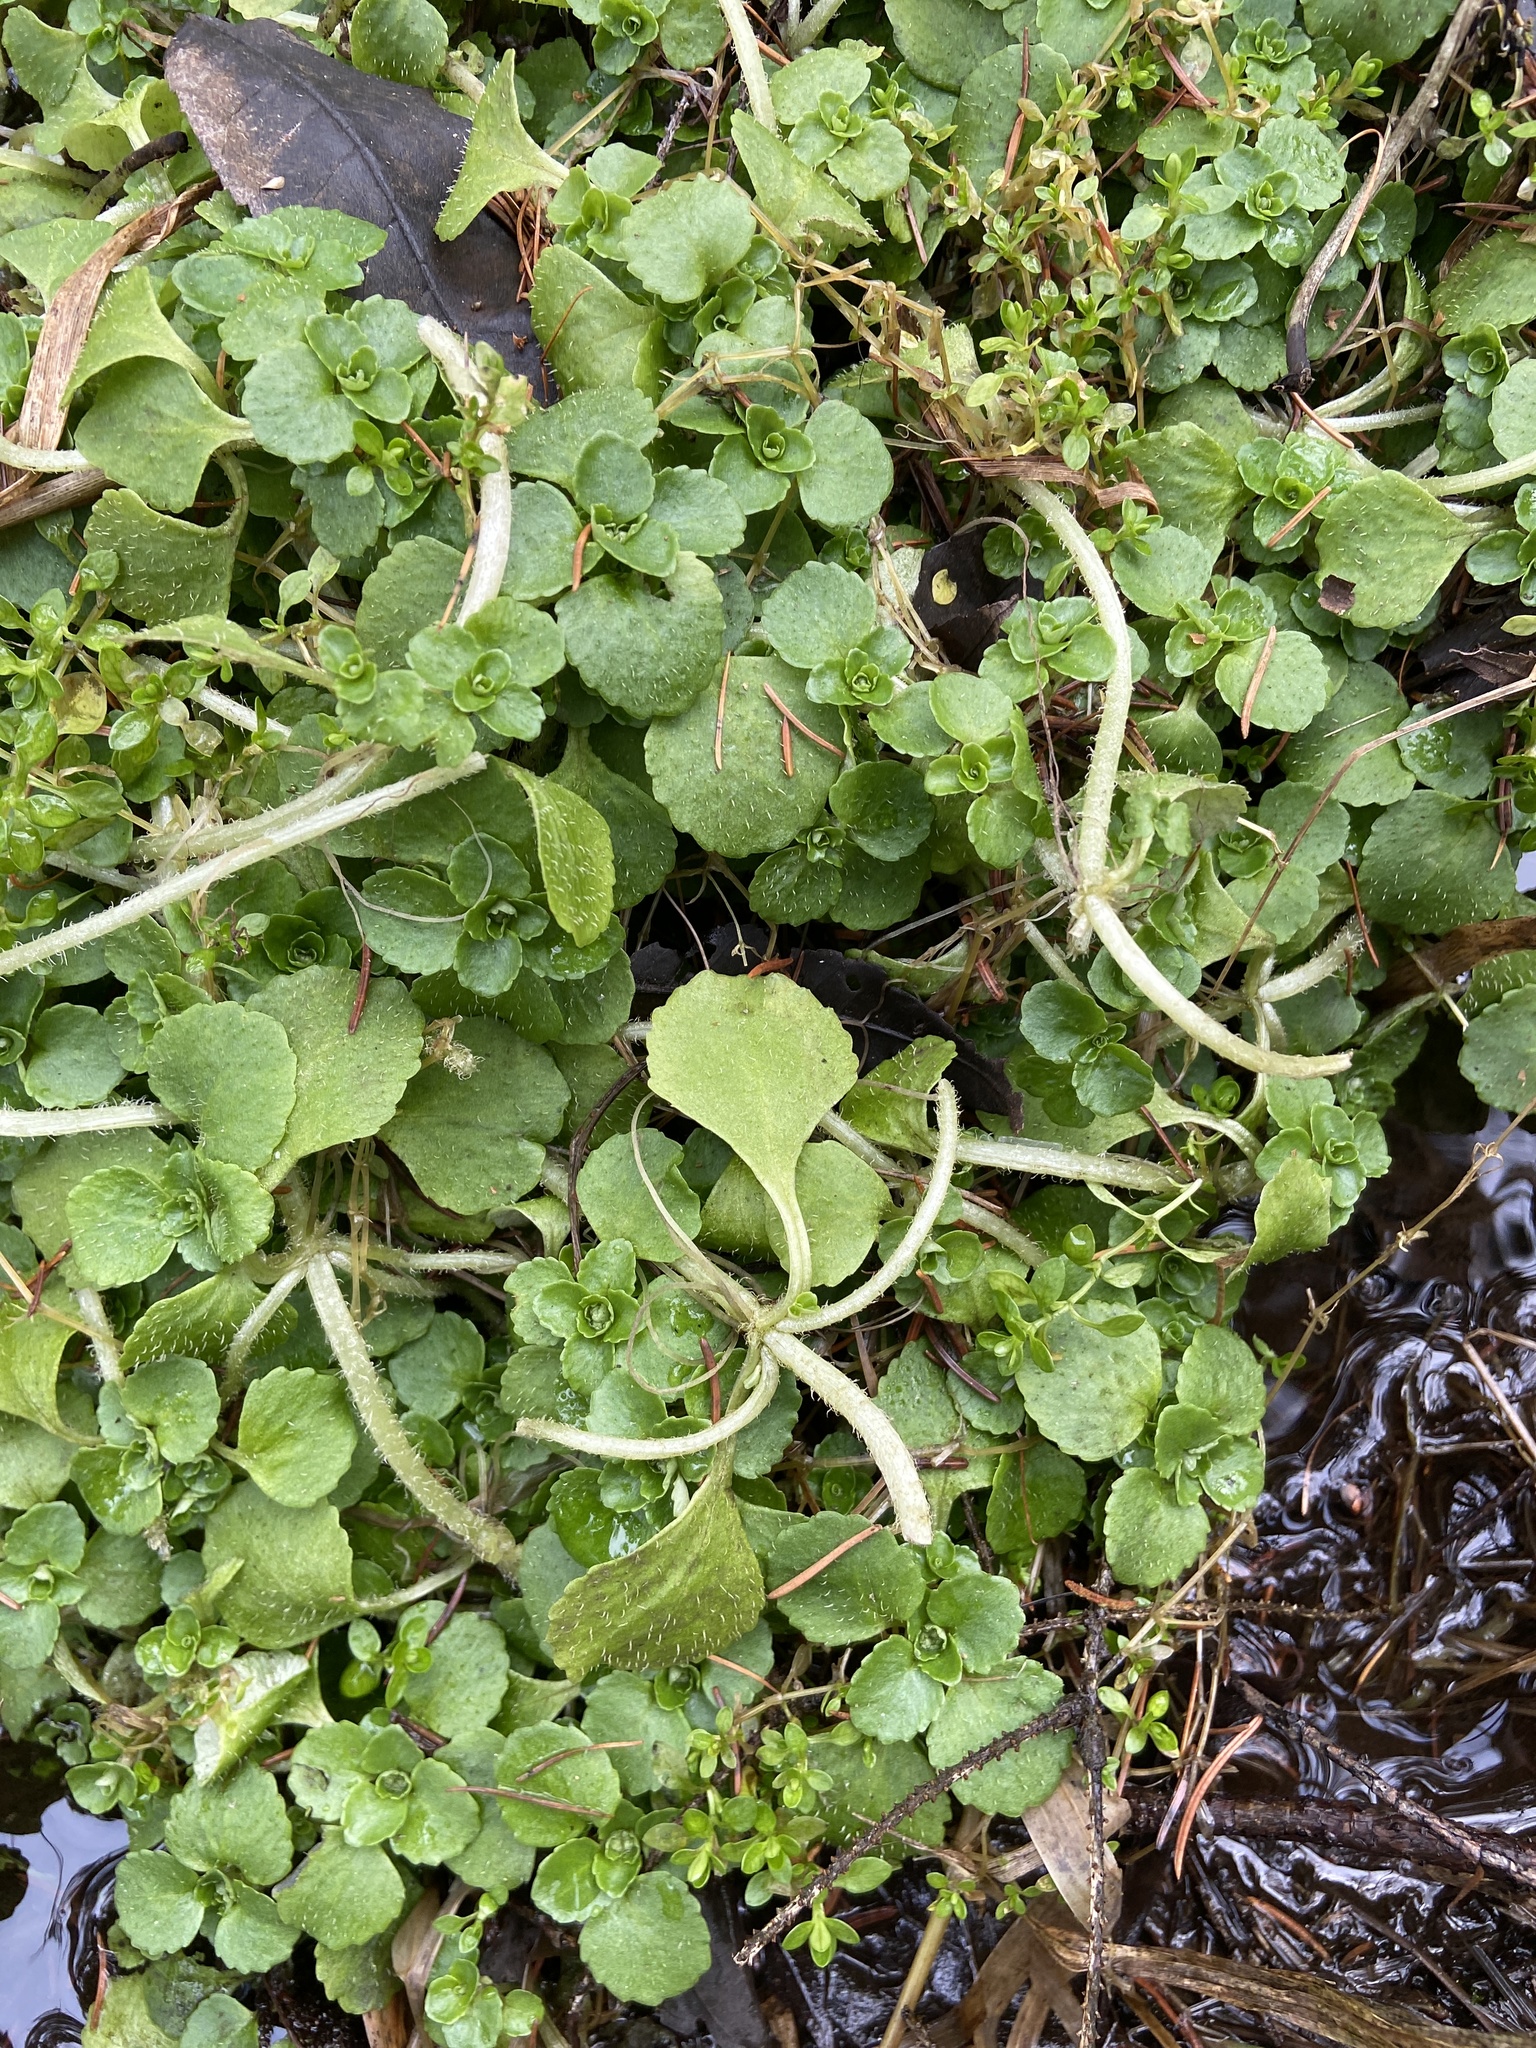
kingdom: Plantae
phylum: Tracheophyta
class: Magnoliopsida
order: Saxifragales
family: Saxifragaceae
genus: Chrysosplenium
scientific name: Chrysosplenium oppositifolium
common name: Opposite-leaved golden-saxifrage
